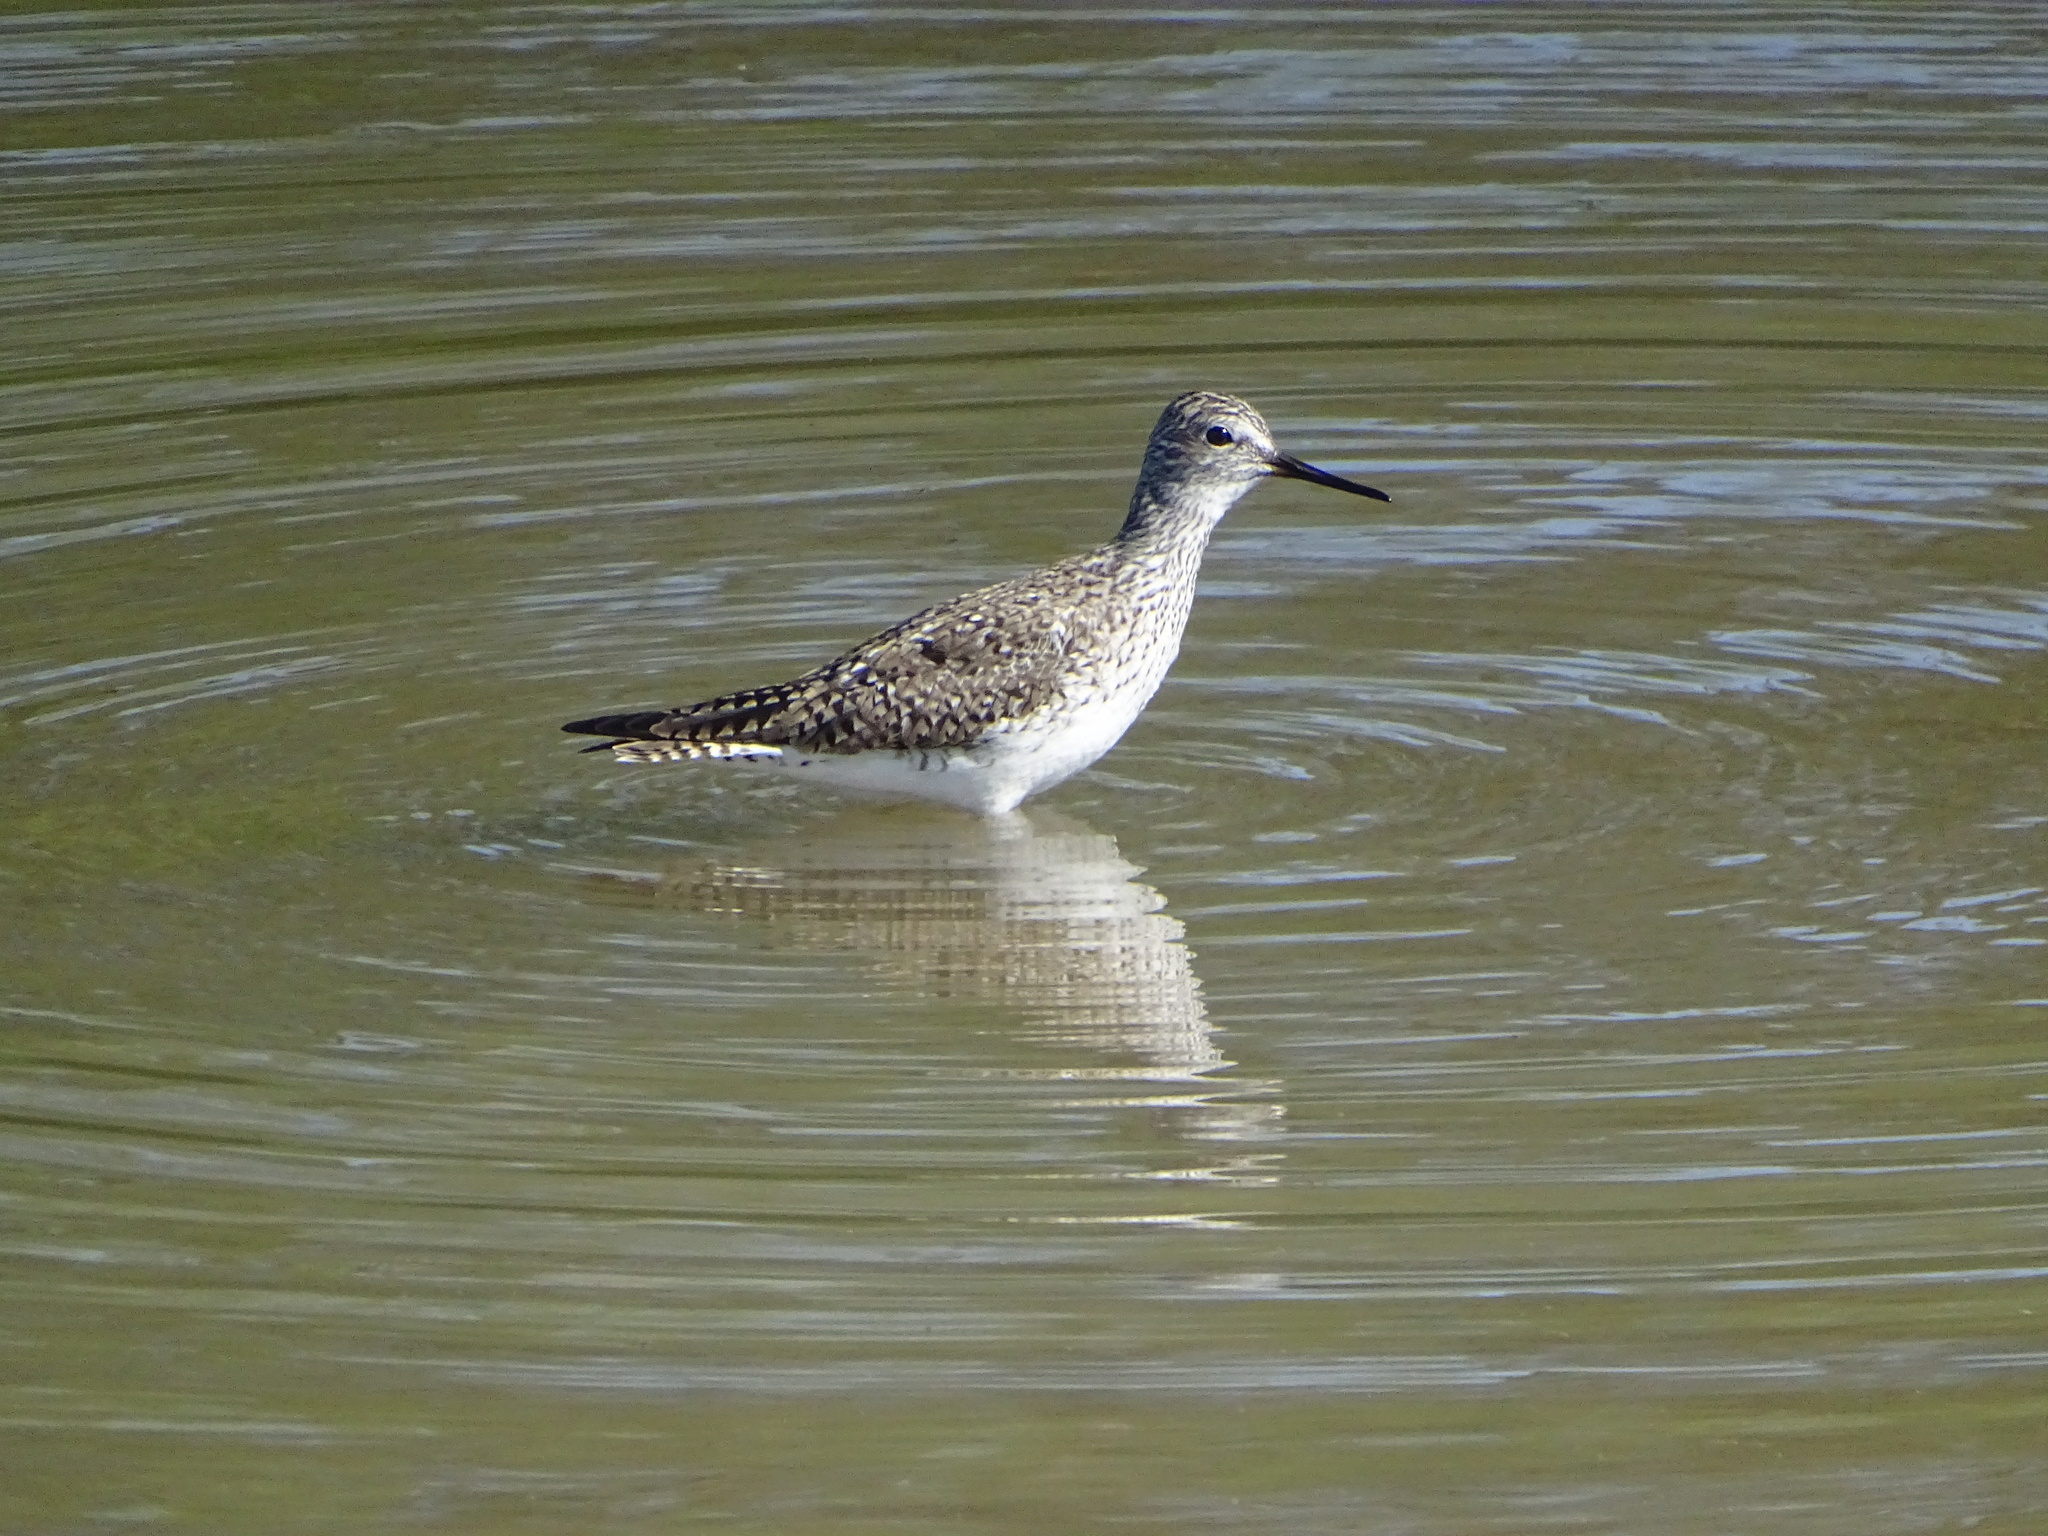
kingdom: Animalia
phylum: Chordata
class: Aves
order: Charadriiformes
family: Scolopacidae
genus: Tringa
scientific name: Tringa flavipes
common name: Lesser yellowlegs
